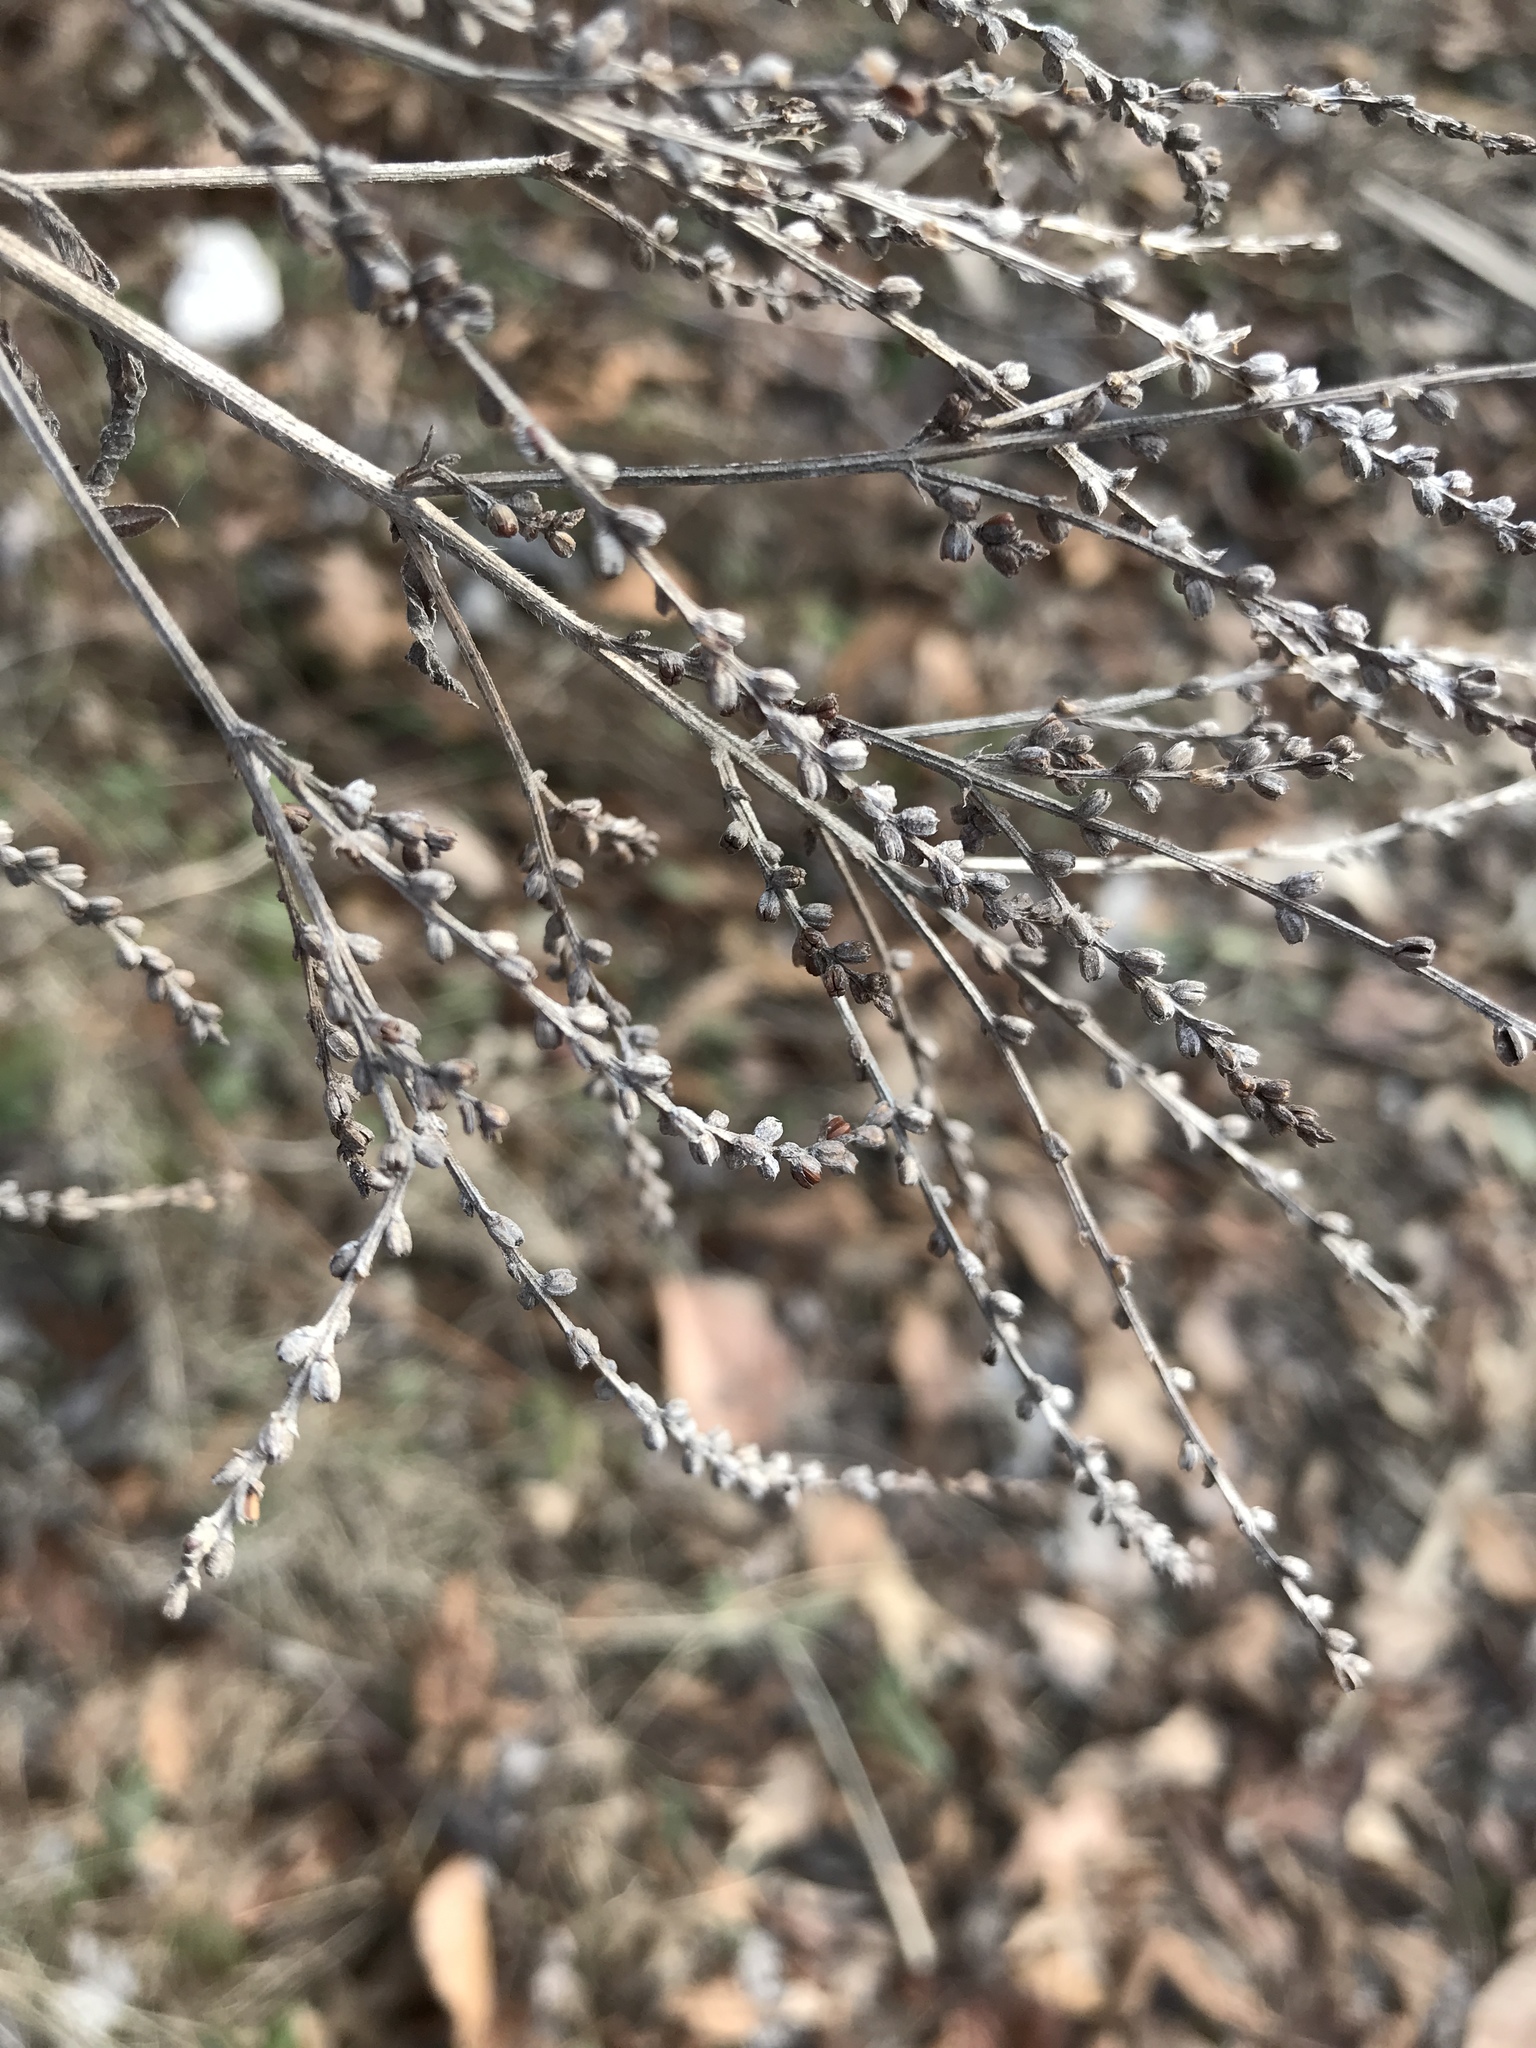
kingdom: Plantae
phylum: Tracheophyta
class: Magnoliopsida
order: Lamiales
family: Verbenaceae
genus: Verbena
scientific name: Verbena urticifolia
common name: Nettle-leaved vervain
